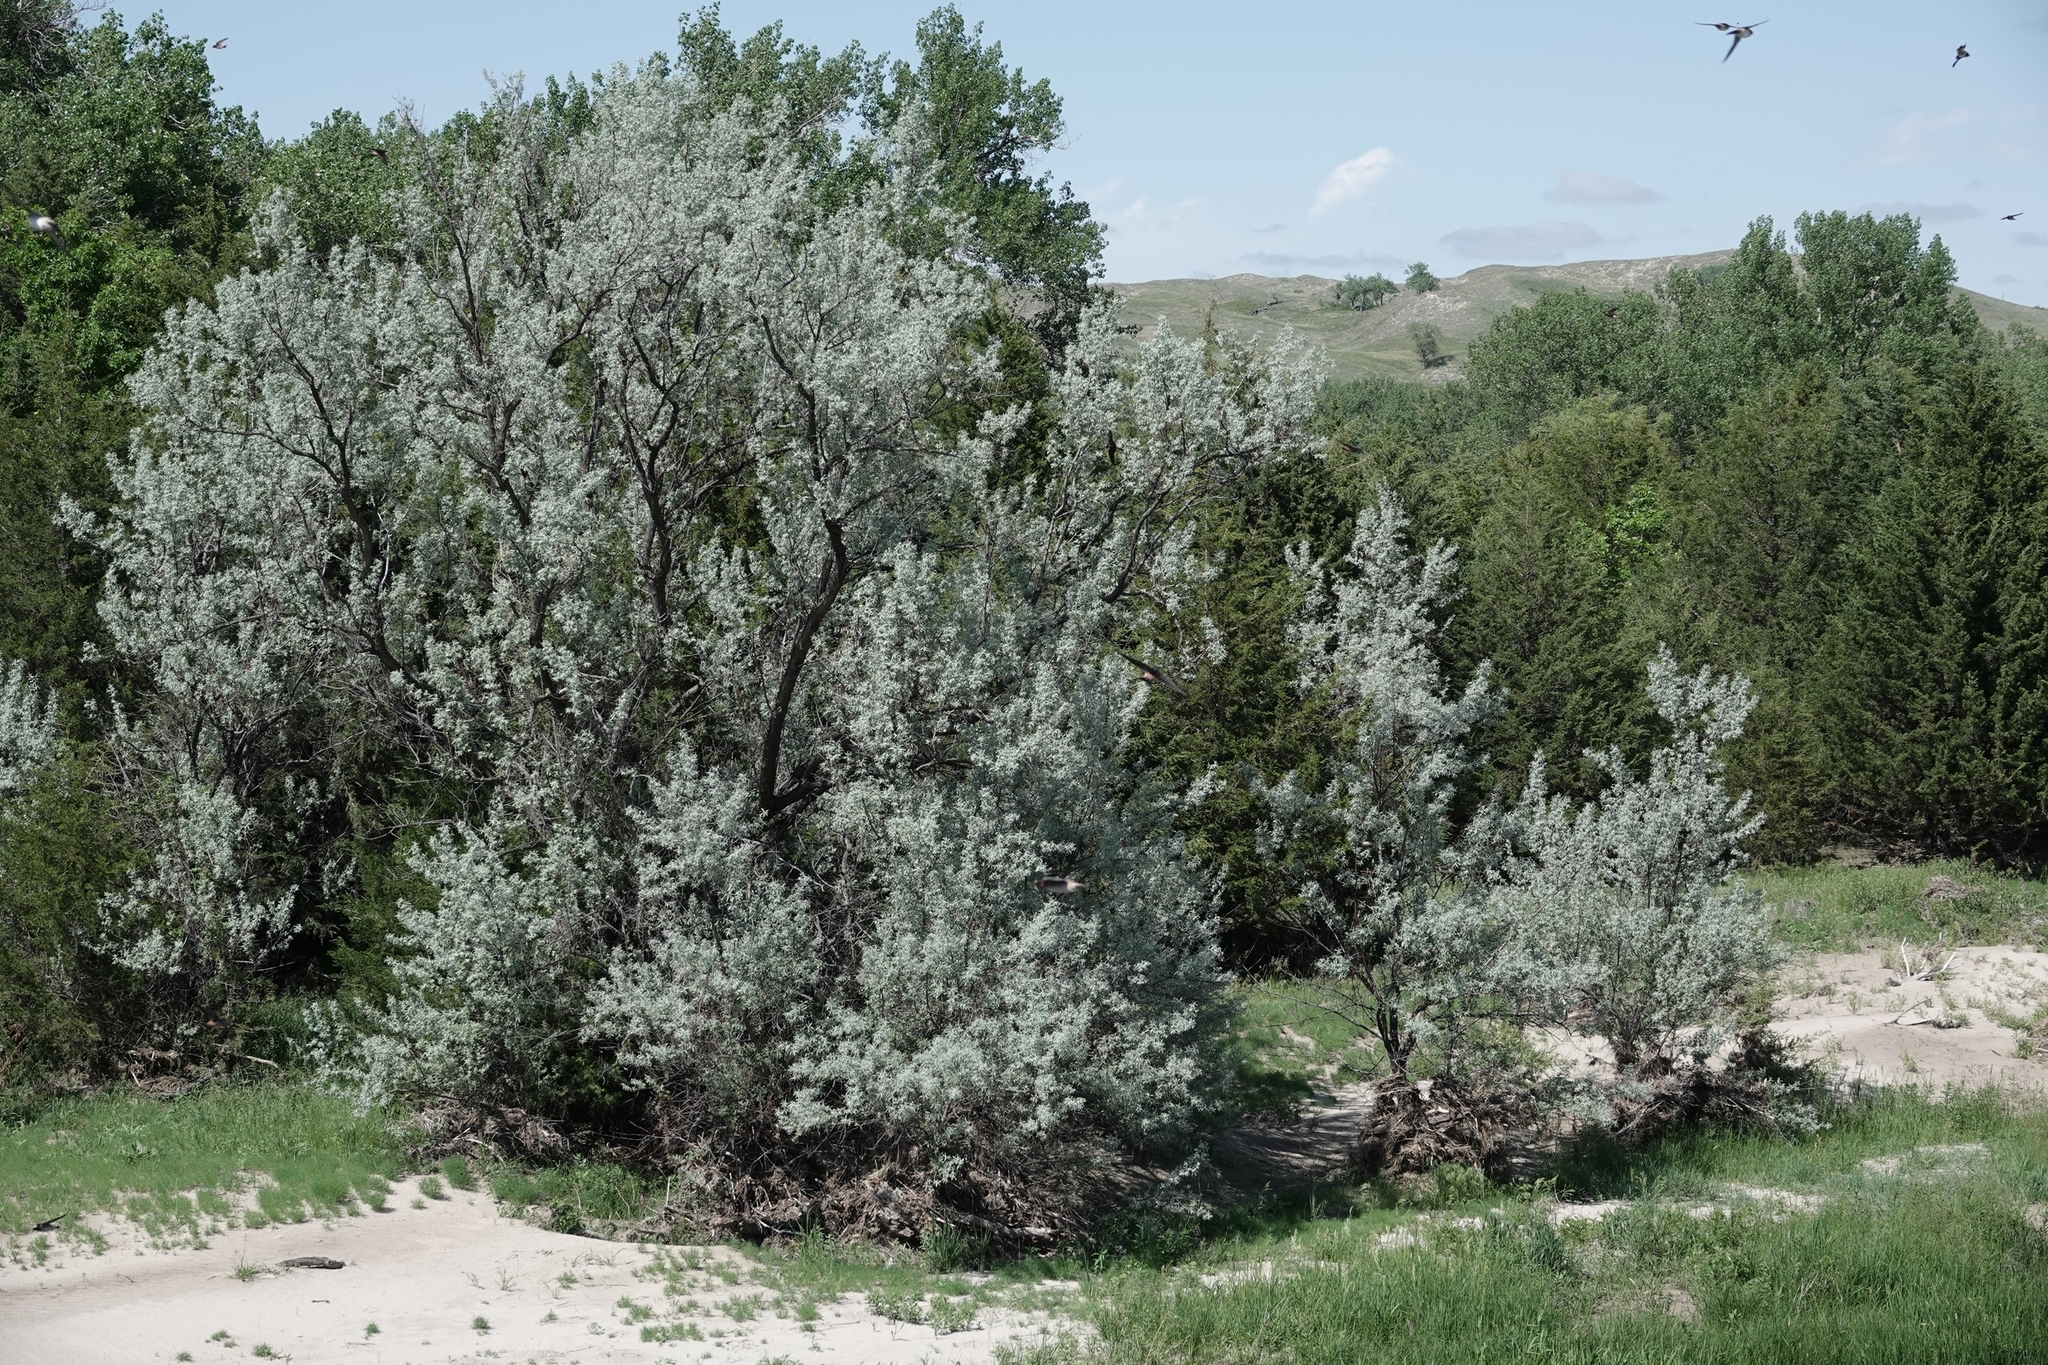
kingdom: Plantae
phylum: Tracheophyta
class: Magnoliopsida
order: Rosales
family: Elaeagnaceae
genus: Elaeagnus
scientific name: Elaeagnus angustifolia
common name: Russian olive
